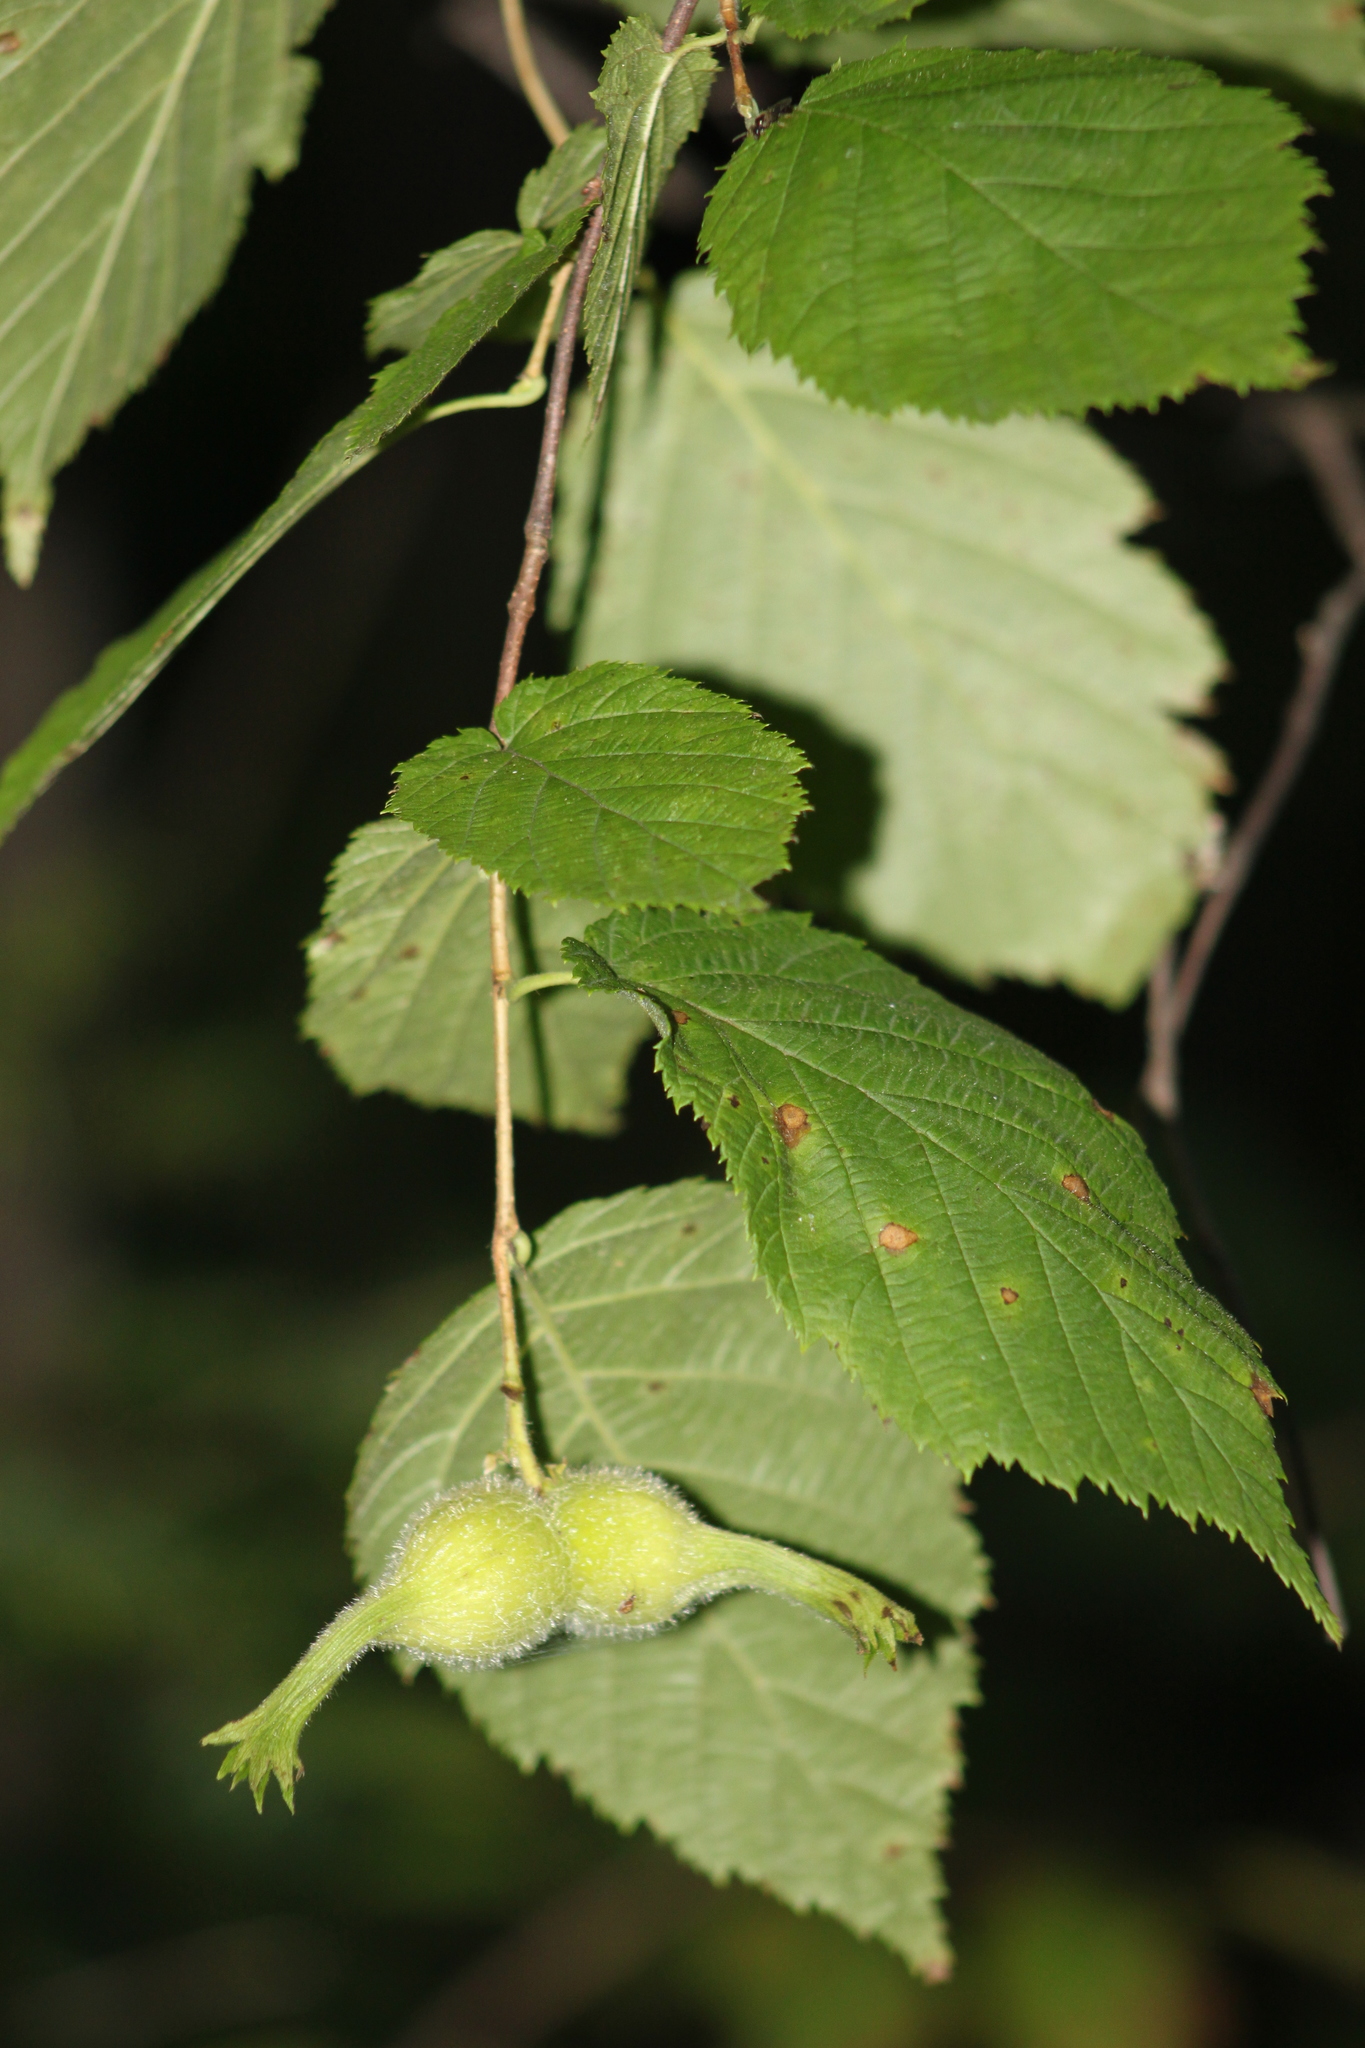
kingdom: Plantae
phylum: Tracheophyta
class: Magnoliopsida
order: Fagales
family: Betulaceae
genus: Corylus
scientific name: Corylus cornuta
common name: Beaked hazel
